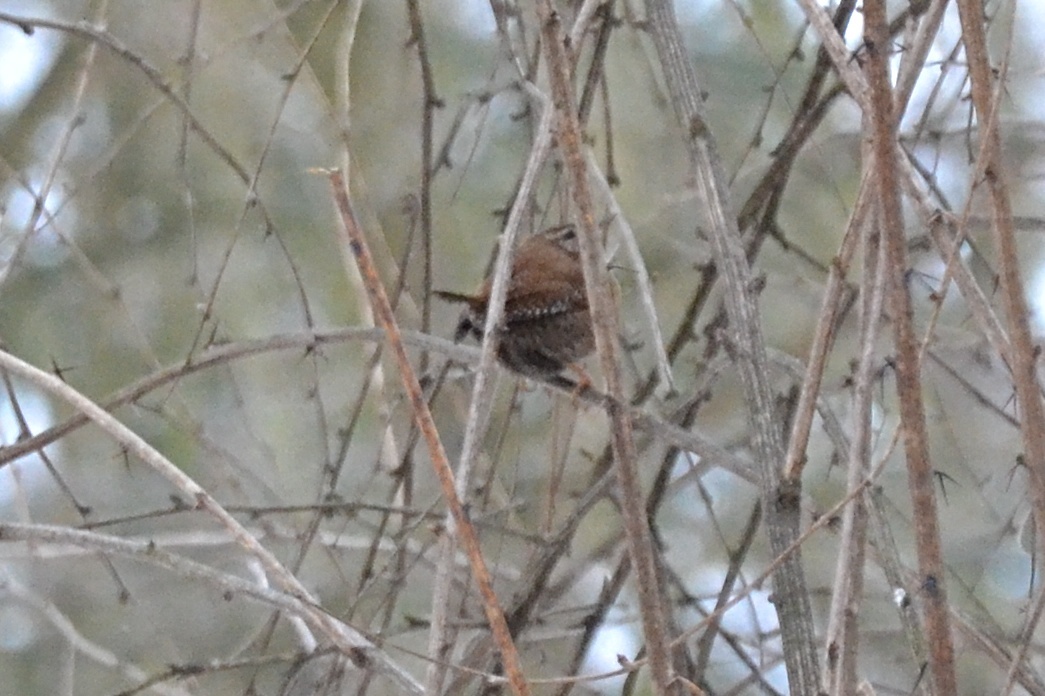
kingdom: Animalia
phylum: Chordata
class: Aves
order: Passeriformes
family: Troglodytidae
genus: Troglodytes
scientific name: Troglodytes troglodytes
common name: Eurasian wren
